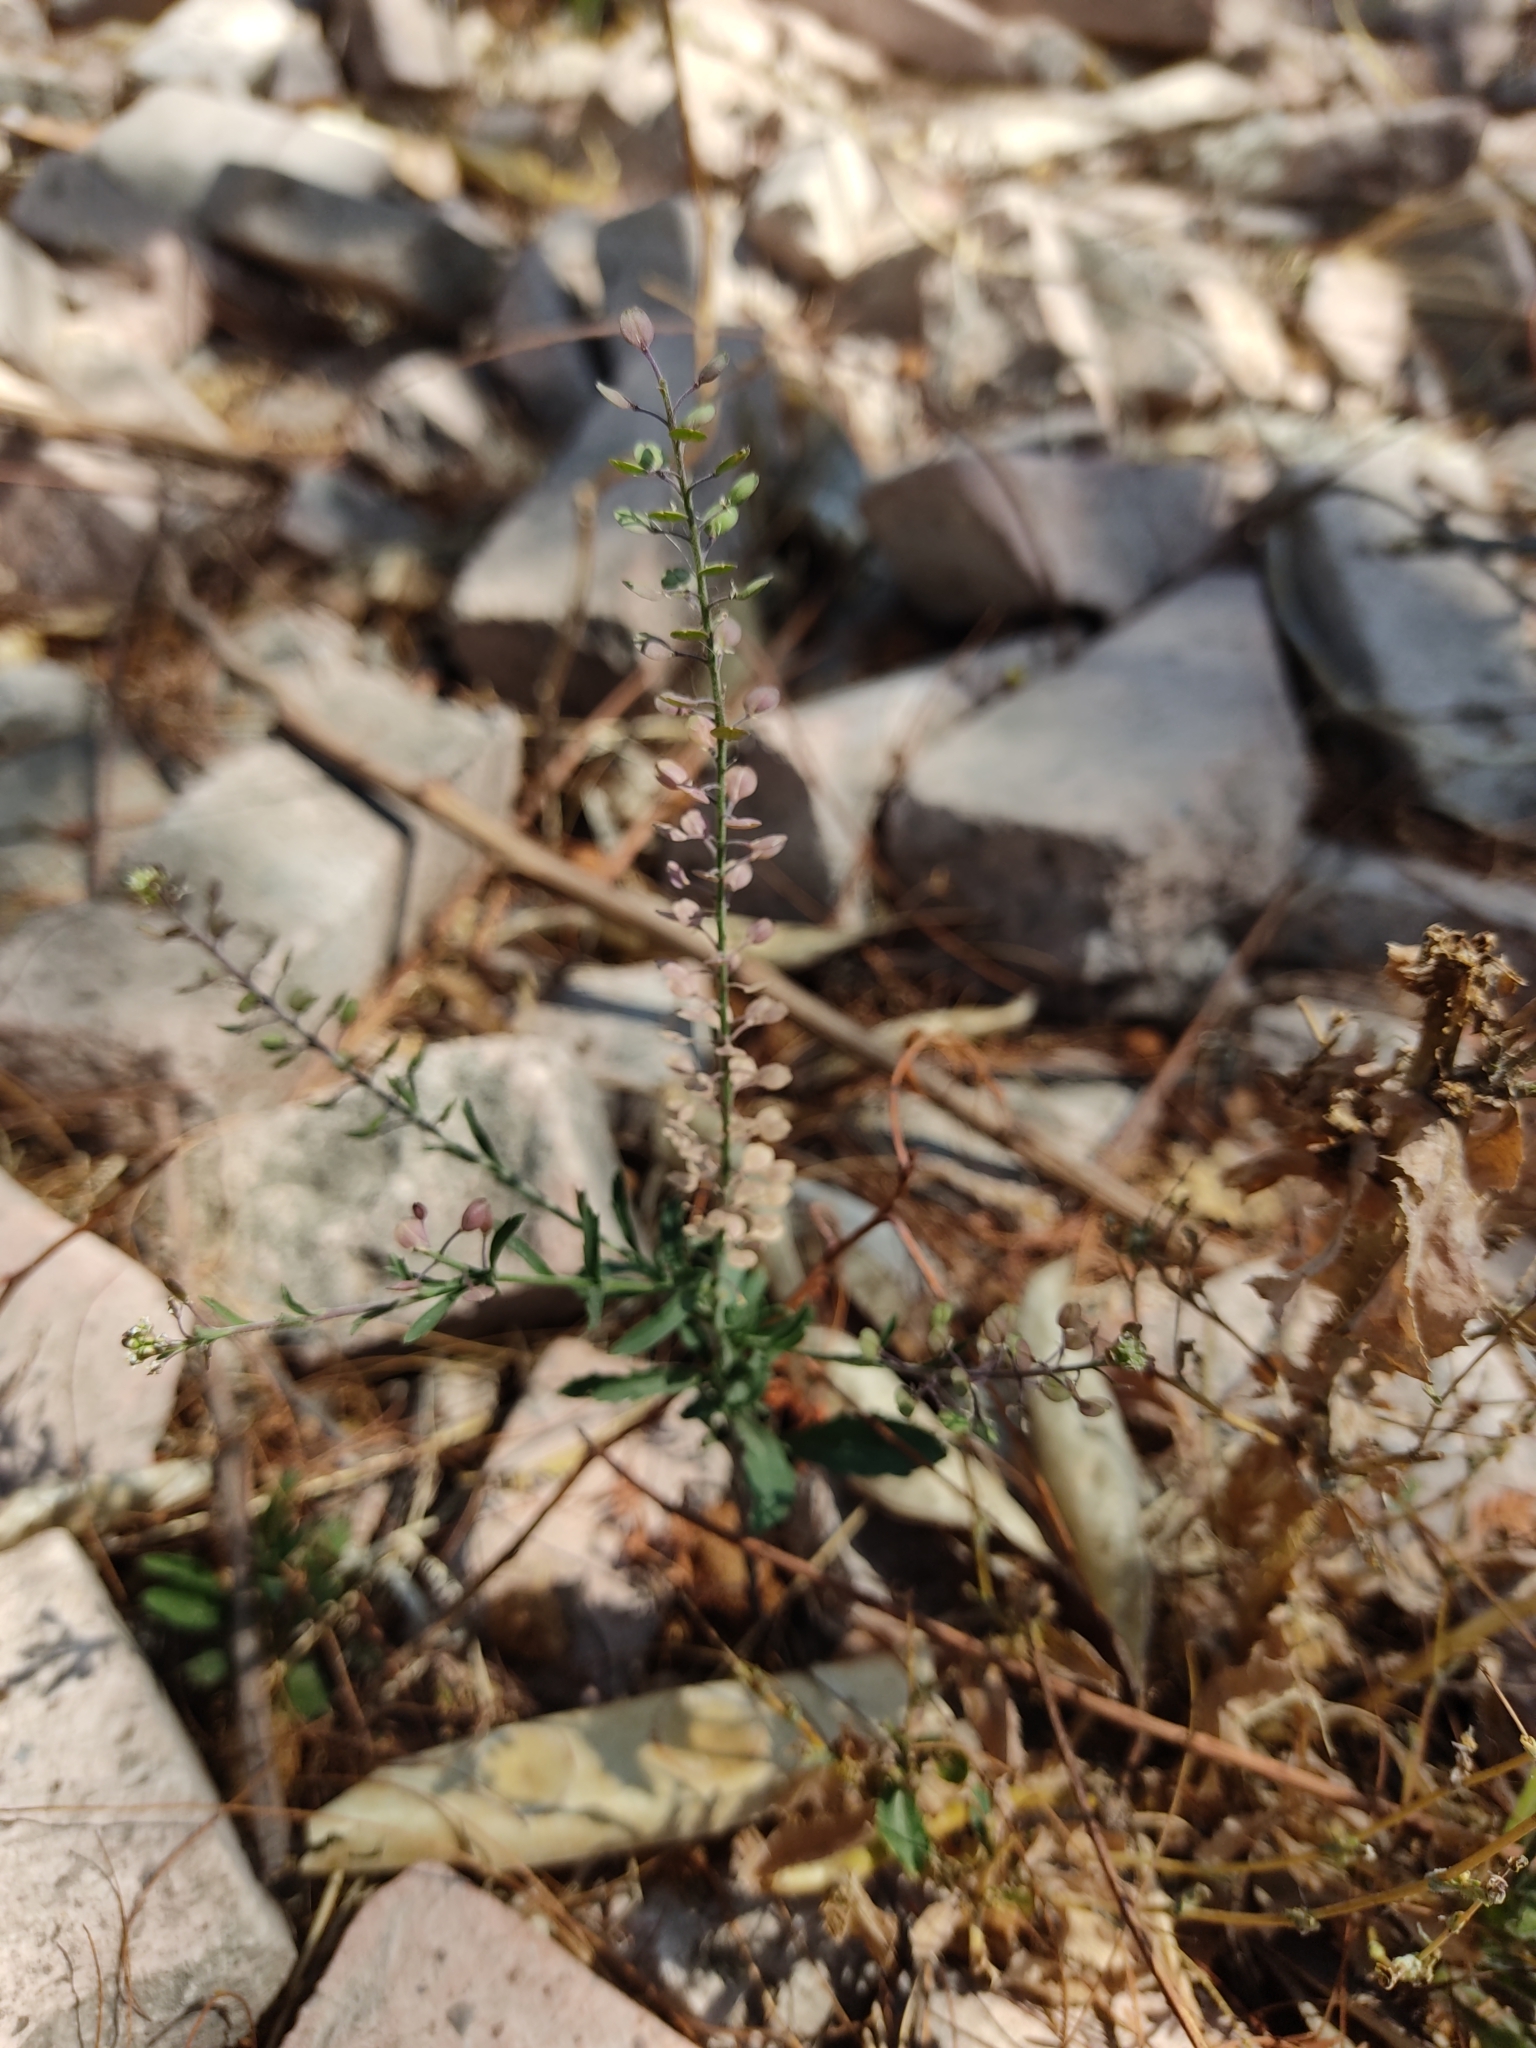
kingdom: Plantae
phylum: Tracheophyta
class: Magnoliopsida
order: Brassicales
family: Brassicaceae
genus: Lepidium
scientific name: Lepidium virginicum
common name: Least pepperwort
